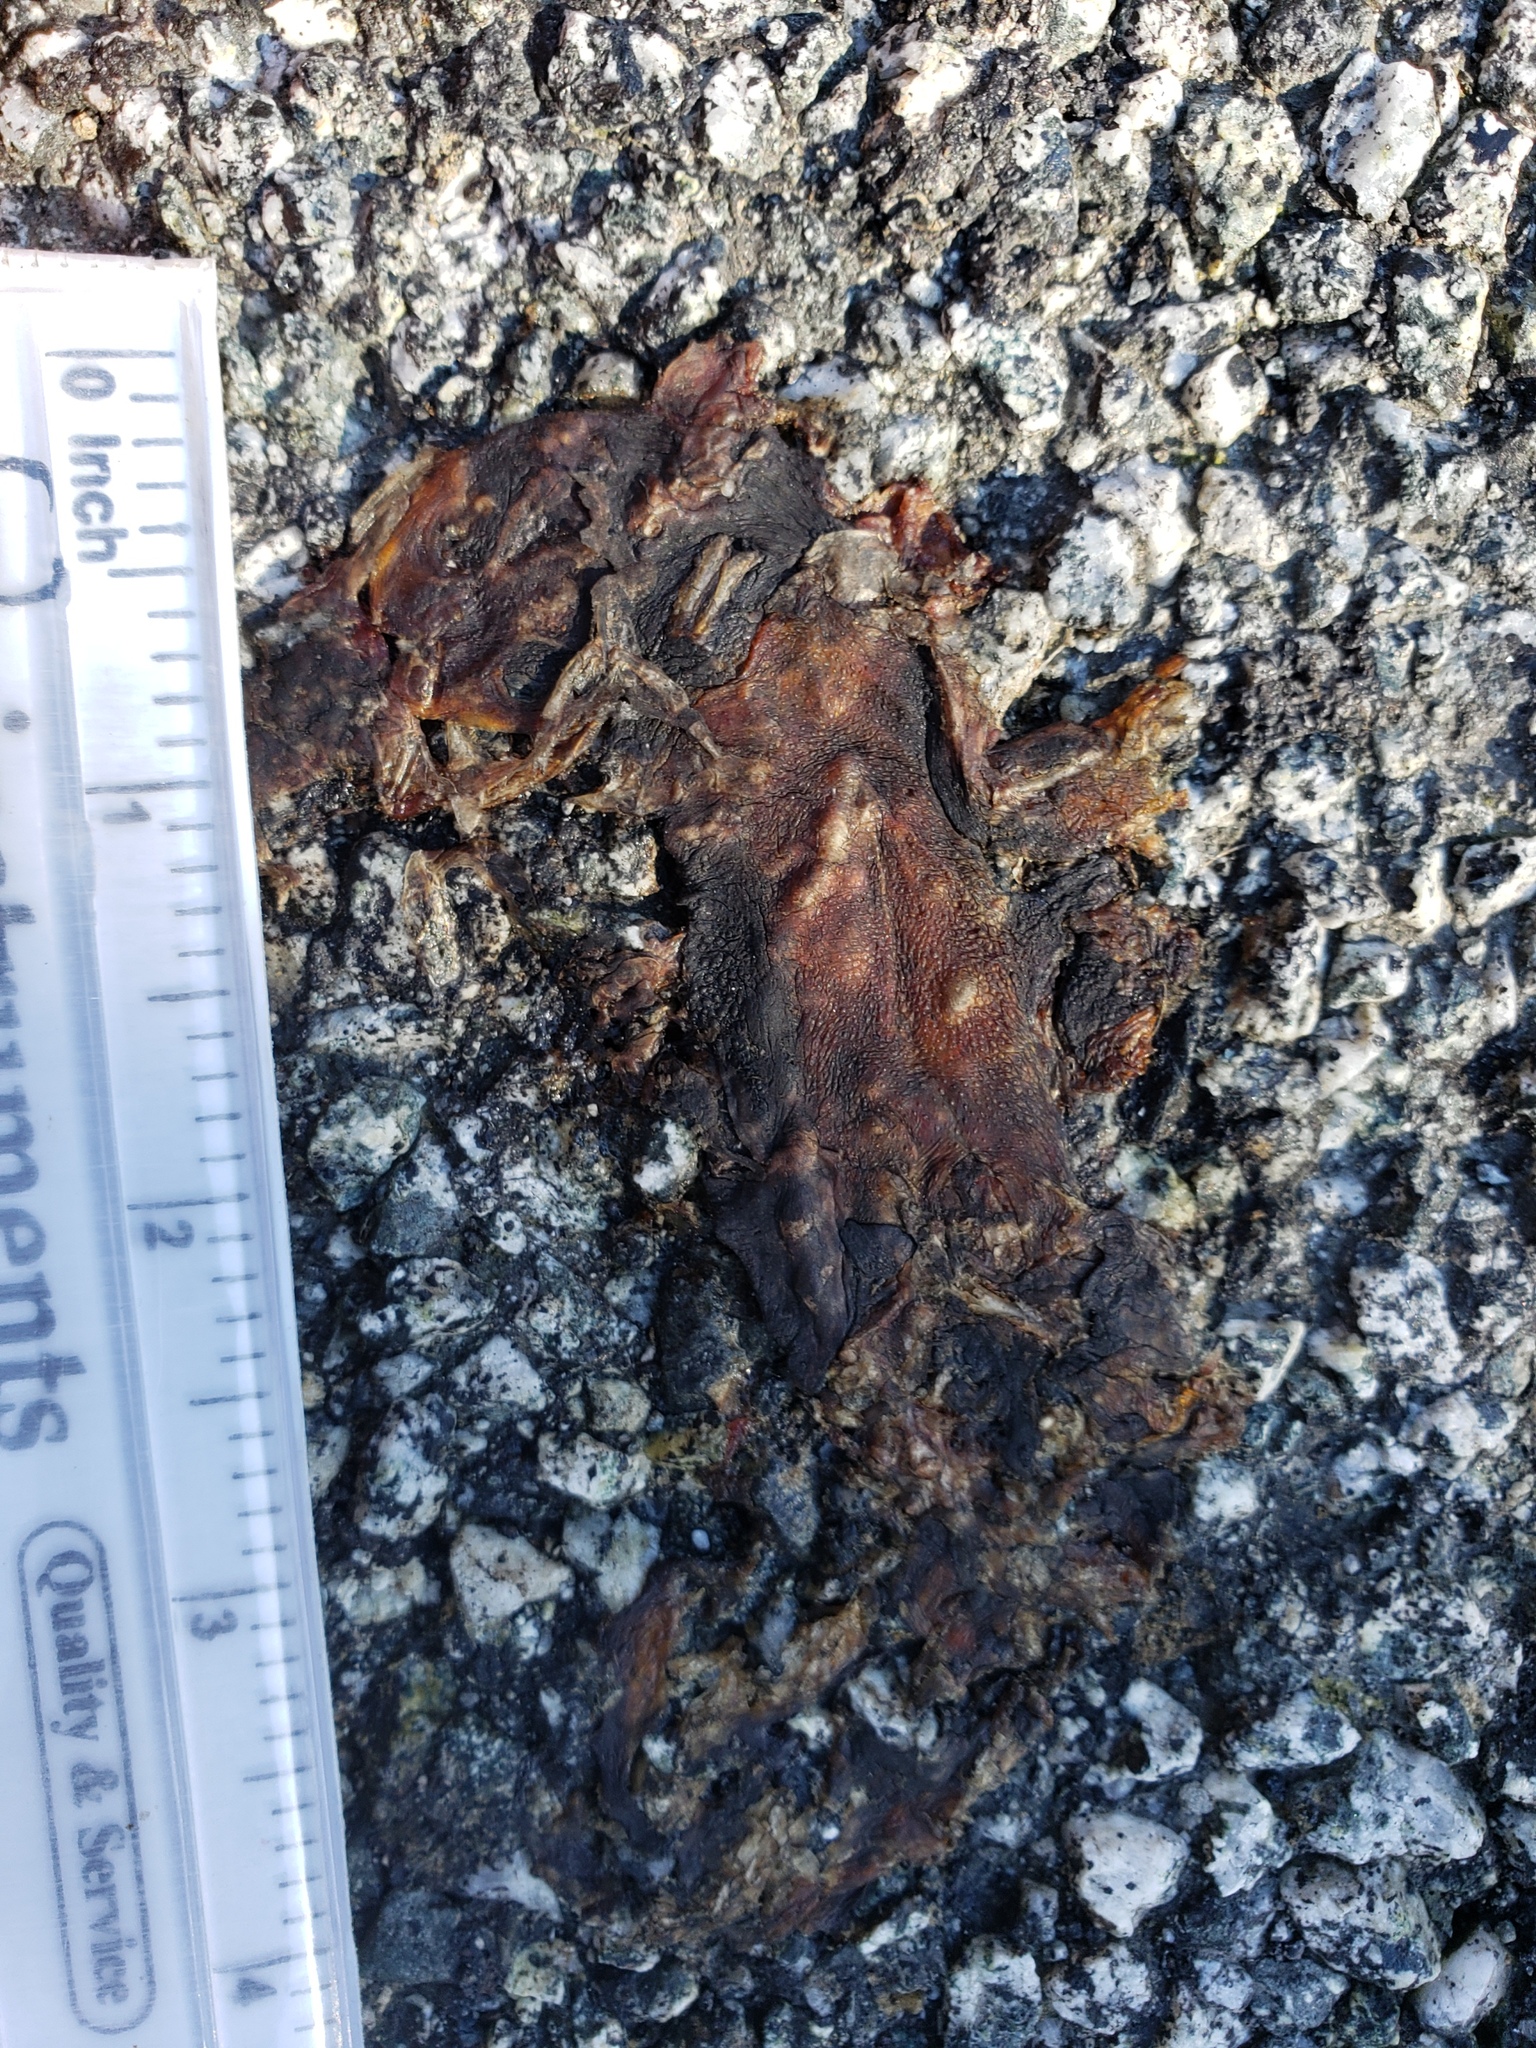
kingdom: Animalia
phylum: Chordata
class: Amphibia
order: Caudata
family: Salamandridae
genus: Taricha
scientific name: Taricha
